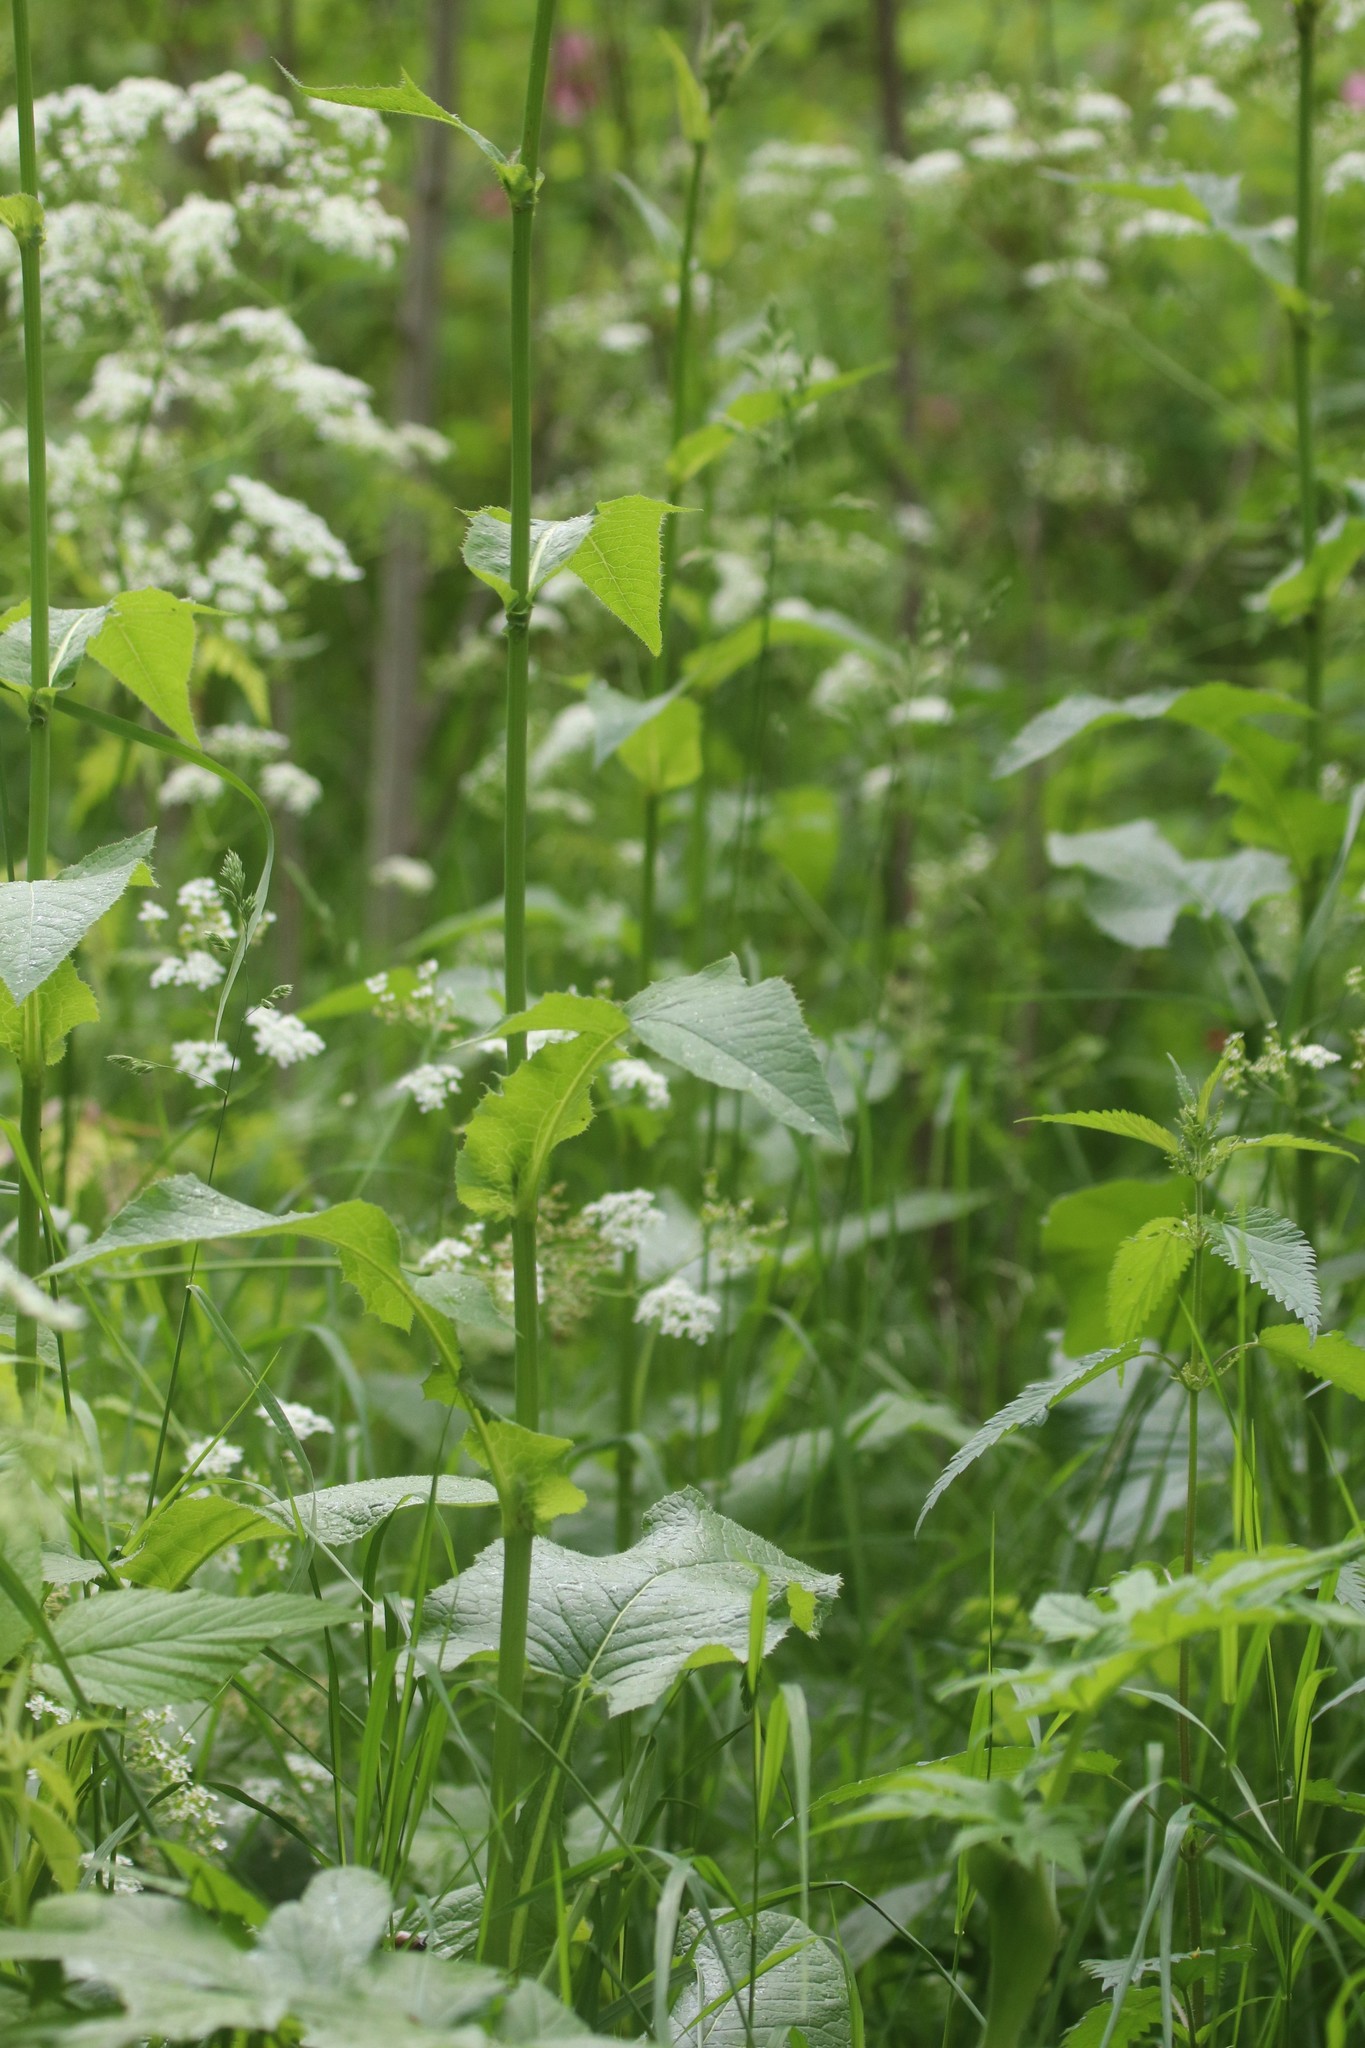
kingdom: Plantae
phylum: Tracheophyta
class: Magnoliopsida
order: Asterales
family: Asteraceae
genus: Lactuca
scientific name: Lactuca macrophylla
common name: Common blue-sow-thistle
